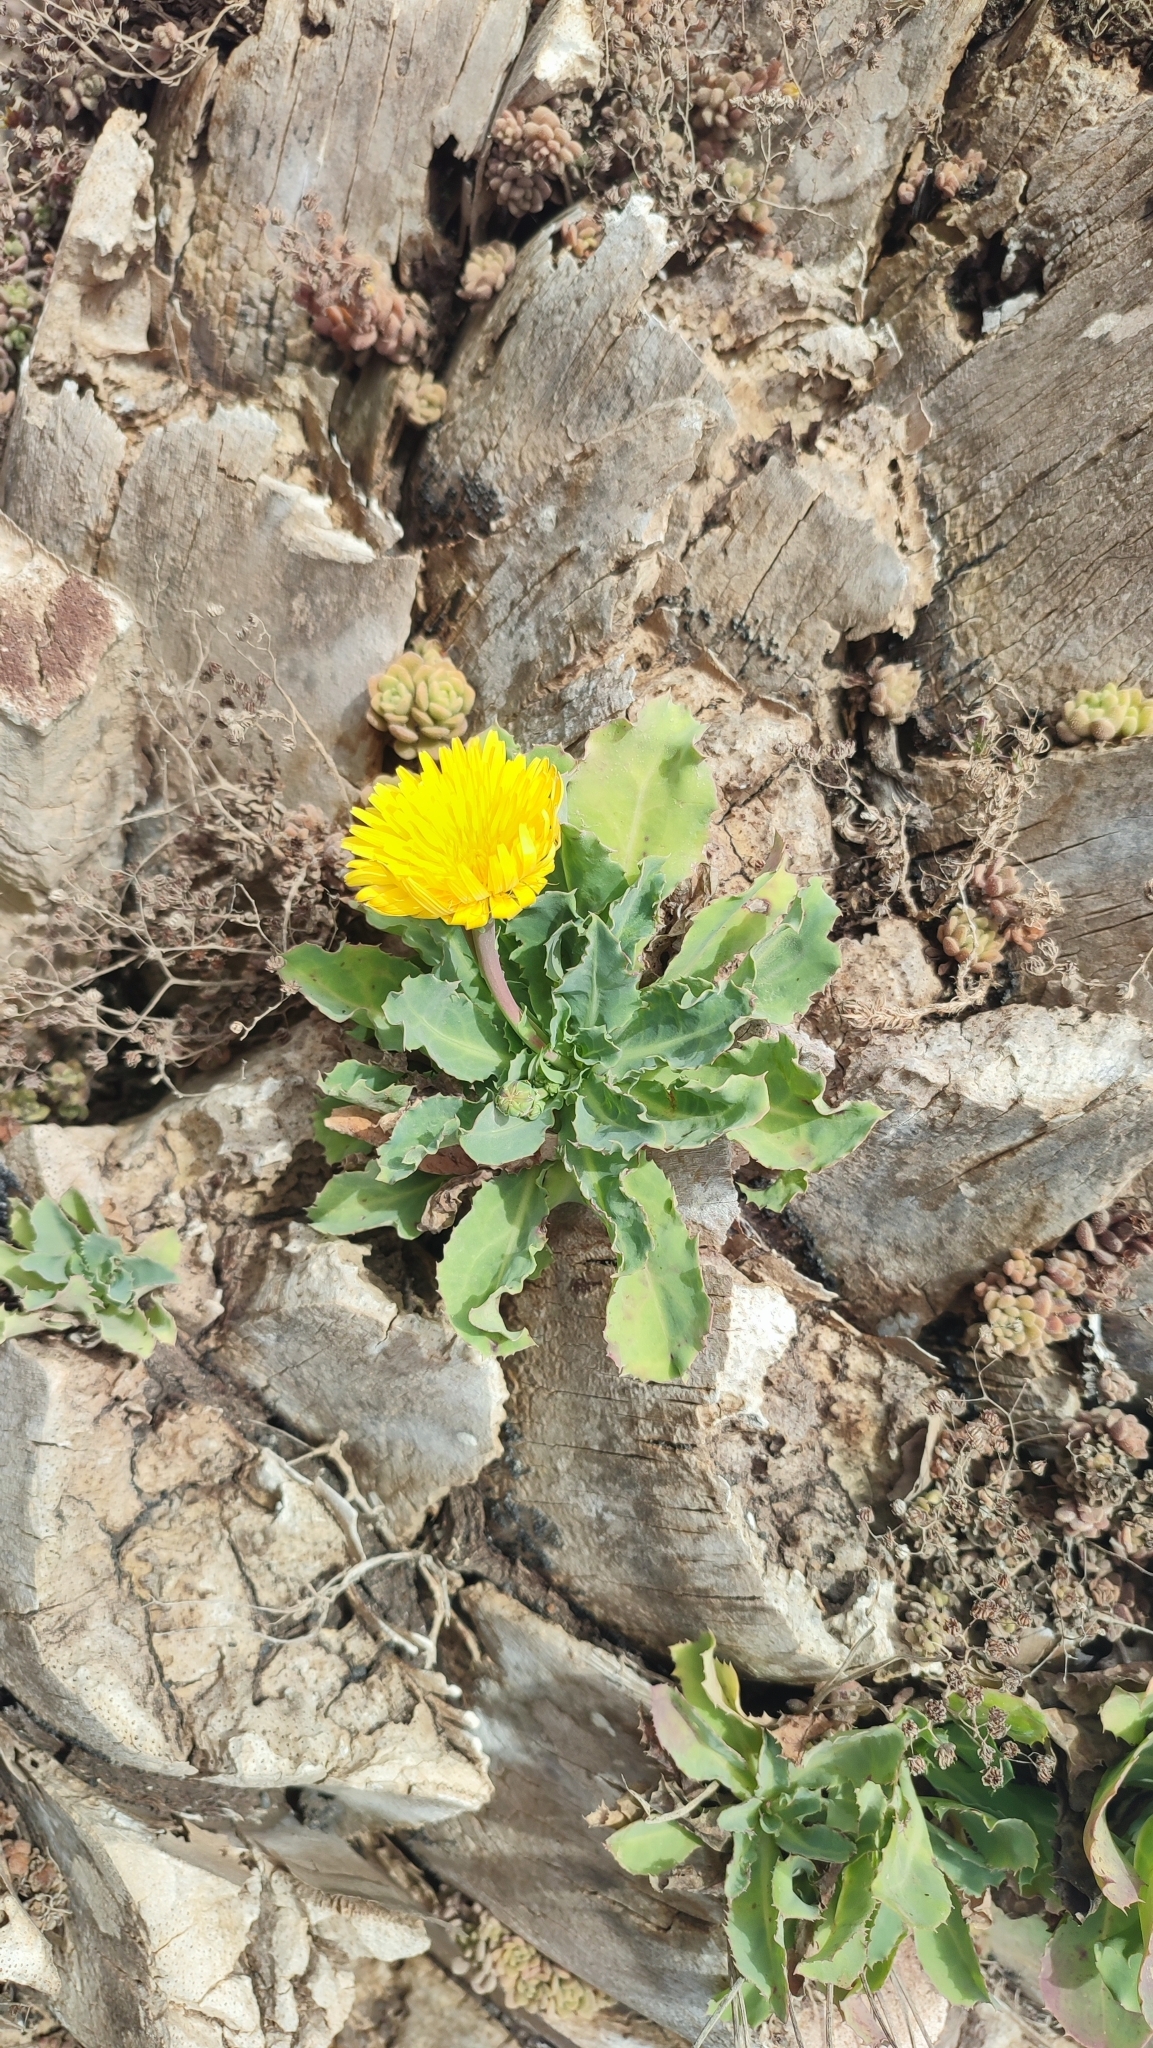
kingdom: Plantae
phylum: Tracheophyta
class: Magnoliopsida
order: Asterales
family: Asteraceae
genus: Reichardia
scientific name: Reichardia famarae
